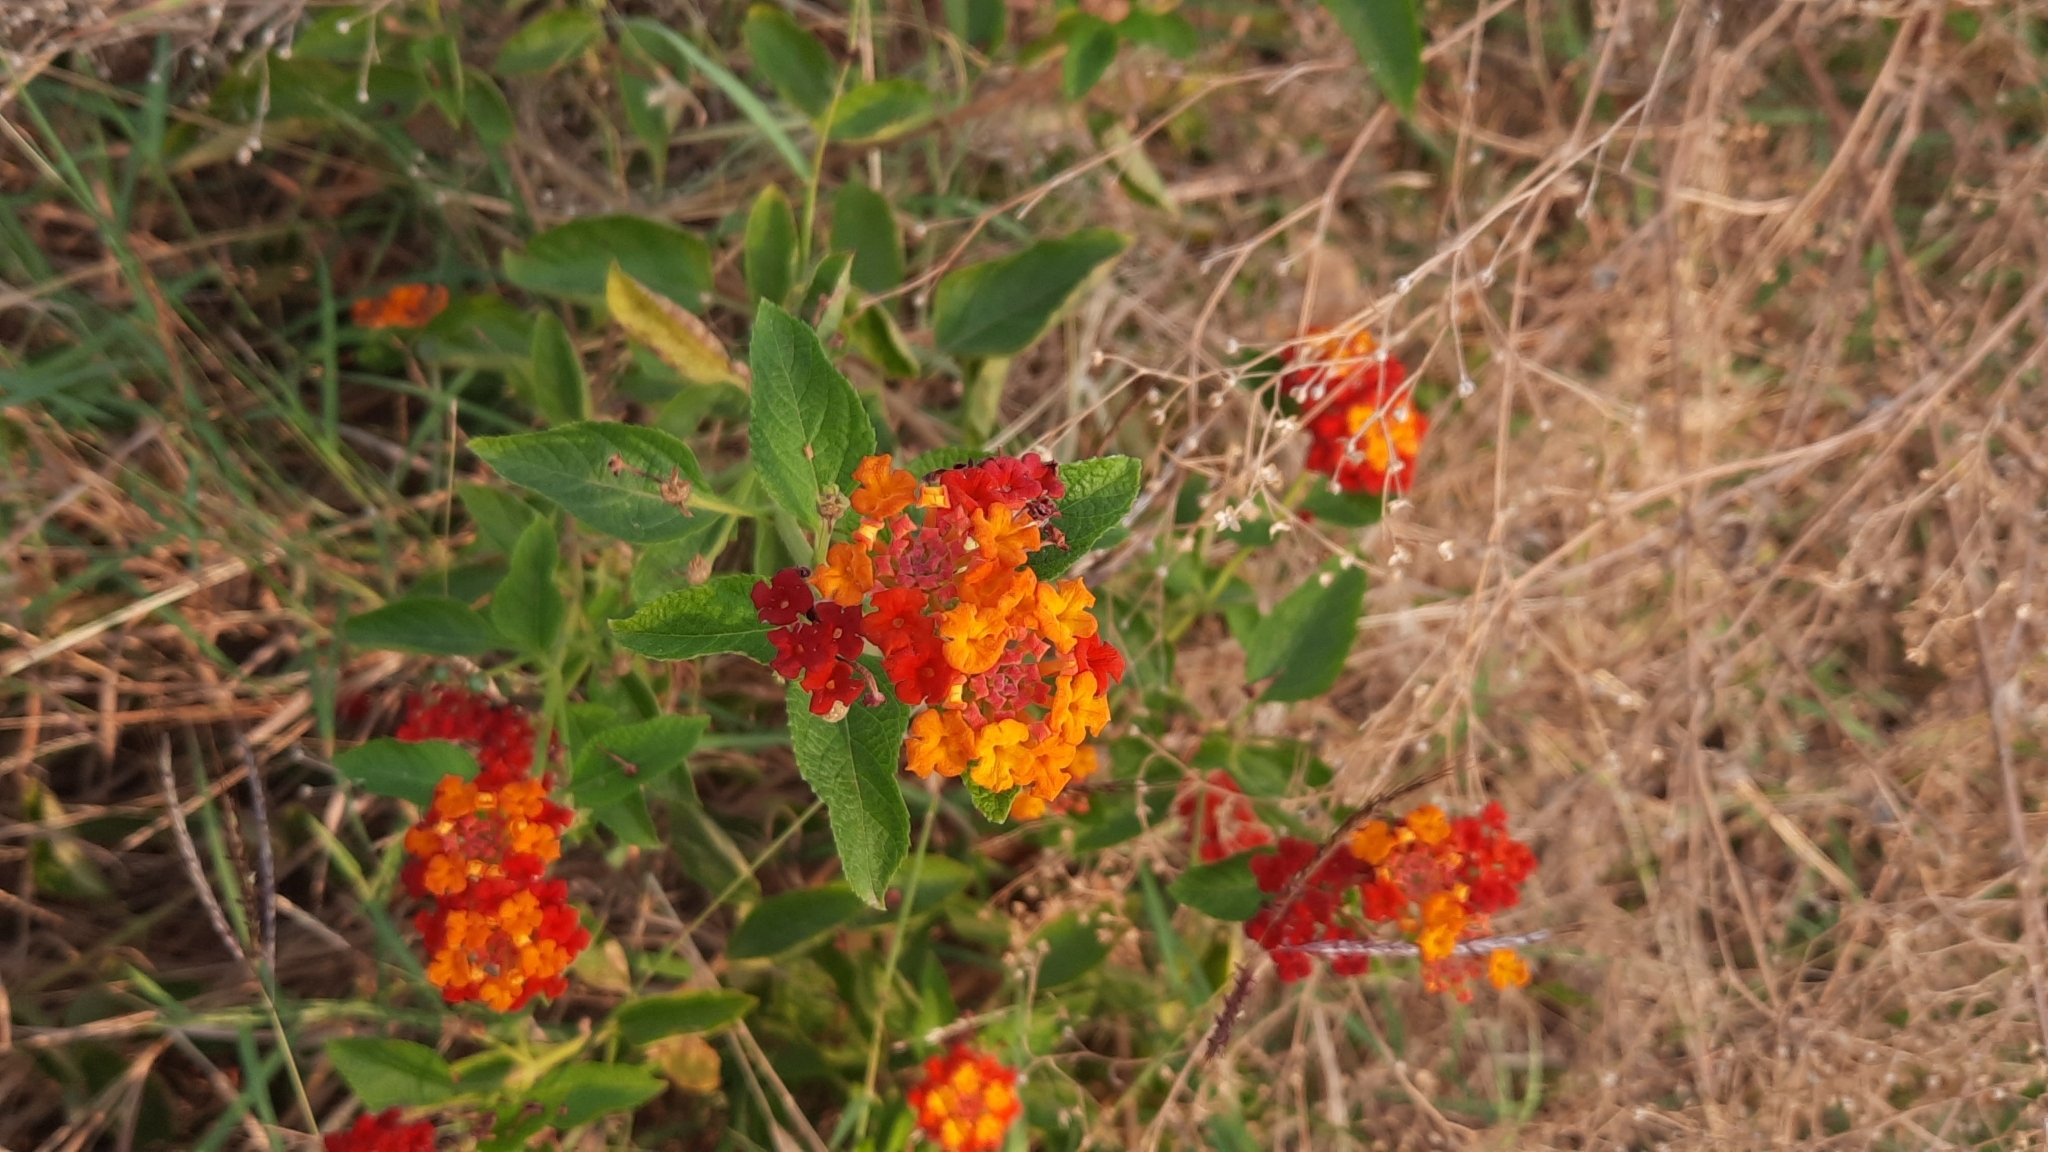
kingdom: Plantae
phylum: Tracheophyta
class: Magnoliopsida
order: Lamiales
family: Verbenaceae
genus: Lantana
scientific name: Lantana camara
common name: Lantana
